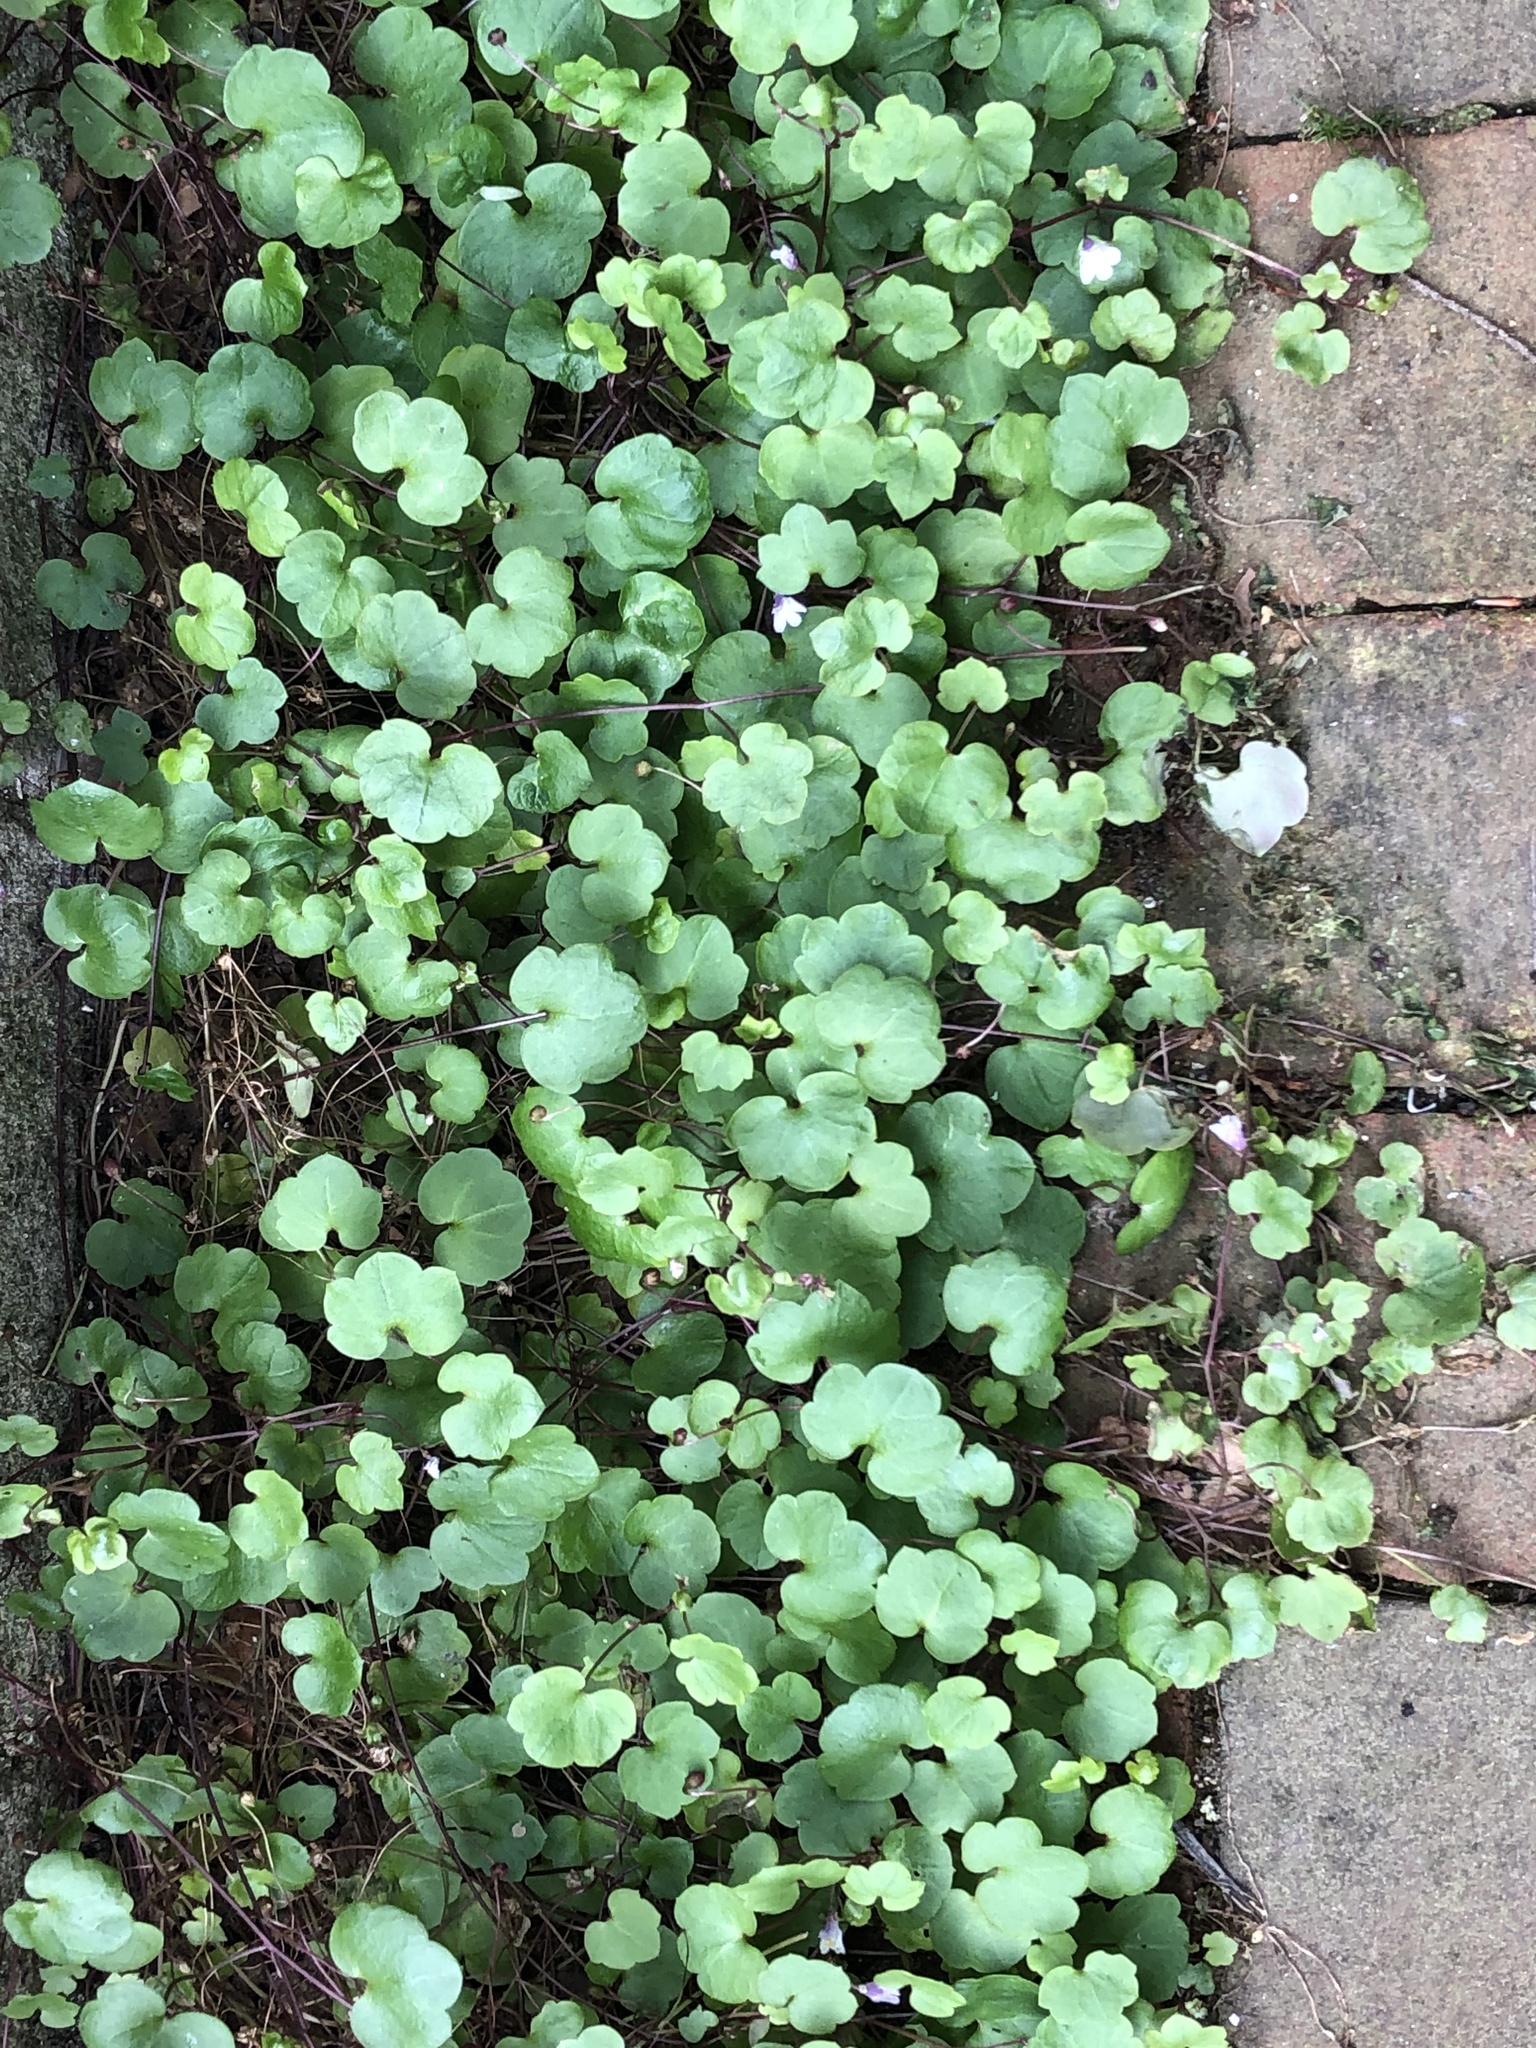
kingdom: Plantae
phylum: Tracheophyta
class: Magnoliopsida
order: Lamiales
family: Plantaginaceae
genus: Cymbalaria
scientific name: Cymbalaria muralis
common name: Ivy-leaved toadflax
